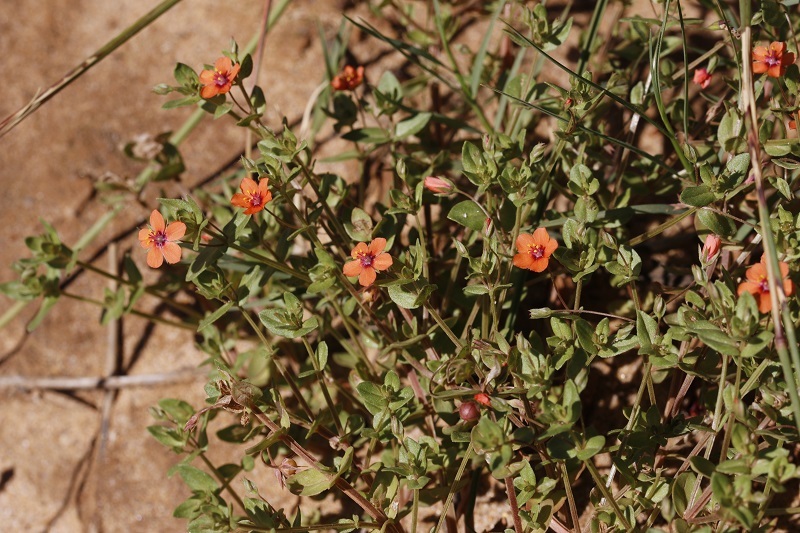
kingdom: Plantae
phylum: Tracheophyta
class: Magnoliopsida
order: Ericales
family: Primulaceae
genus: Lysimachia
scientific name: Lysimachia arvensis
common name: Scarlet pimpernel
